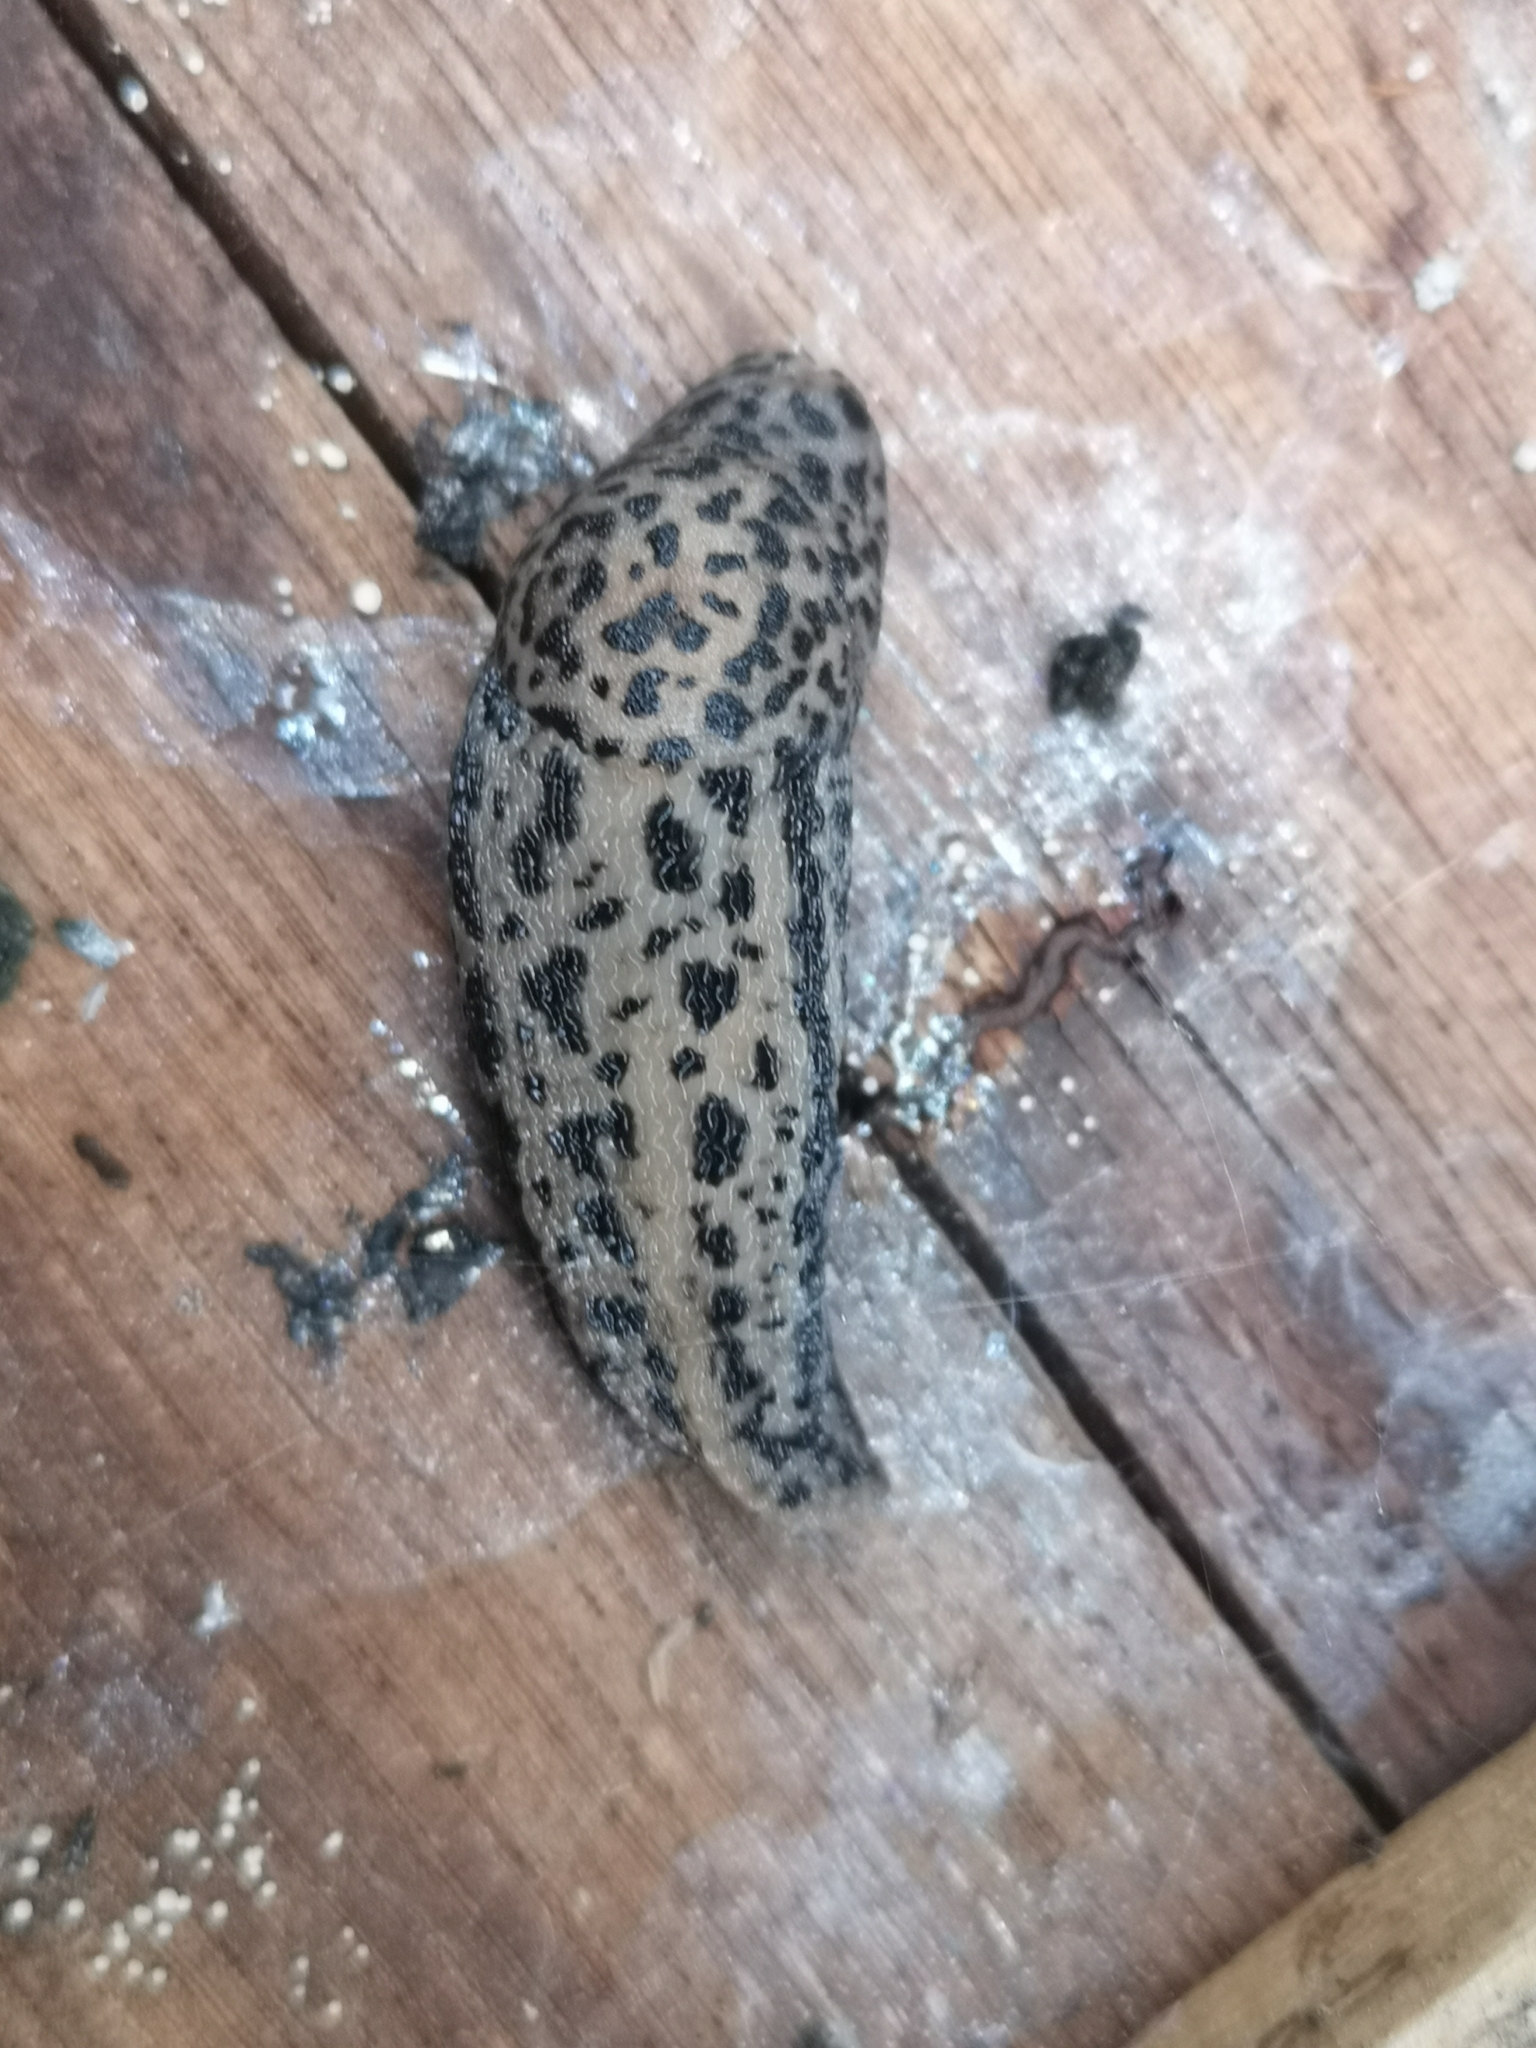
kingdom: Animalia
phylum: Mollusca
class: Gastropoda
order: Stylommatophora
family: Limacidae
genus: Limax
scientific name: Limax maximus
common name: Great grey slug
